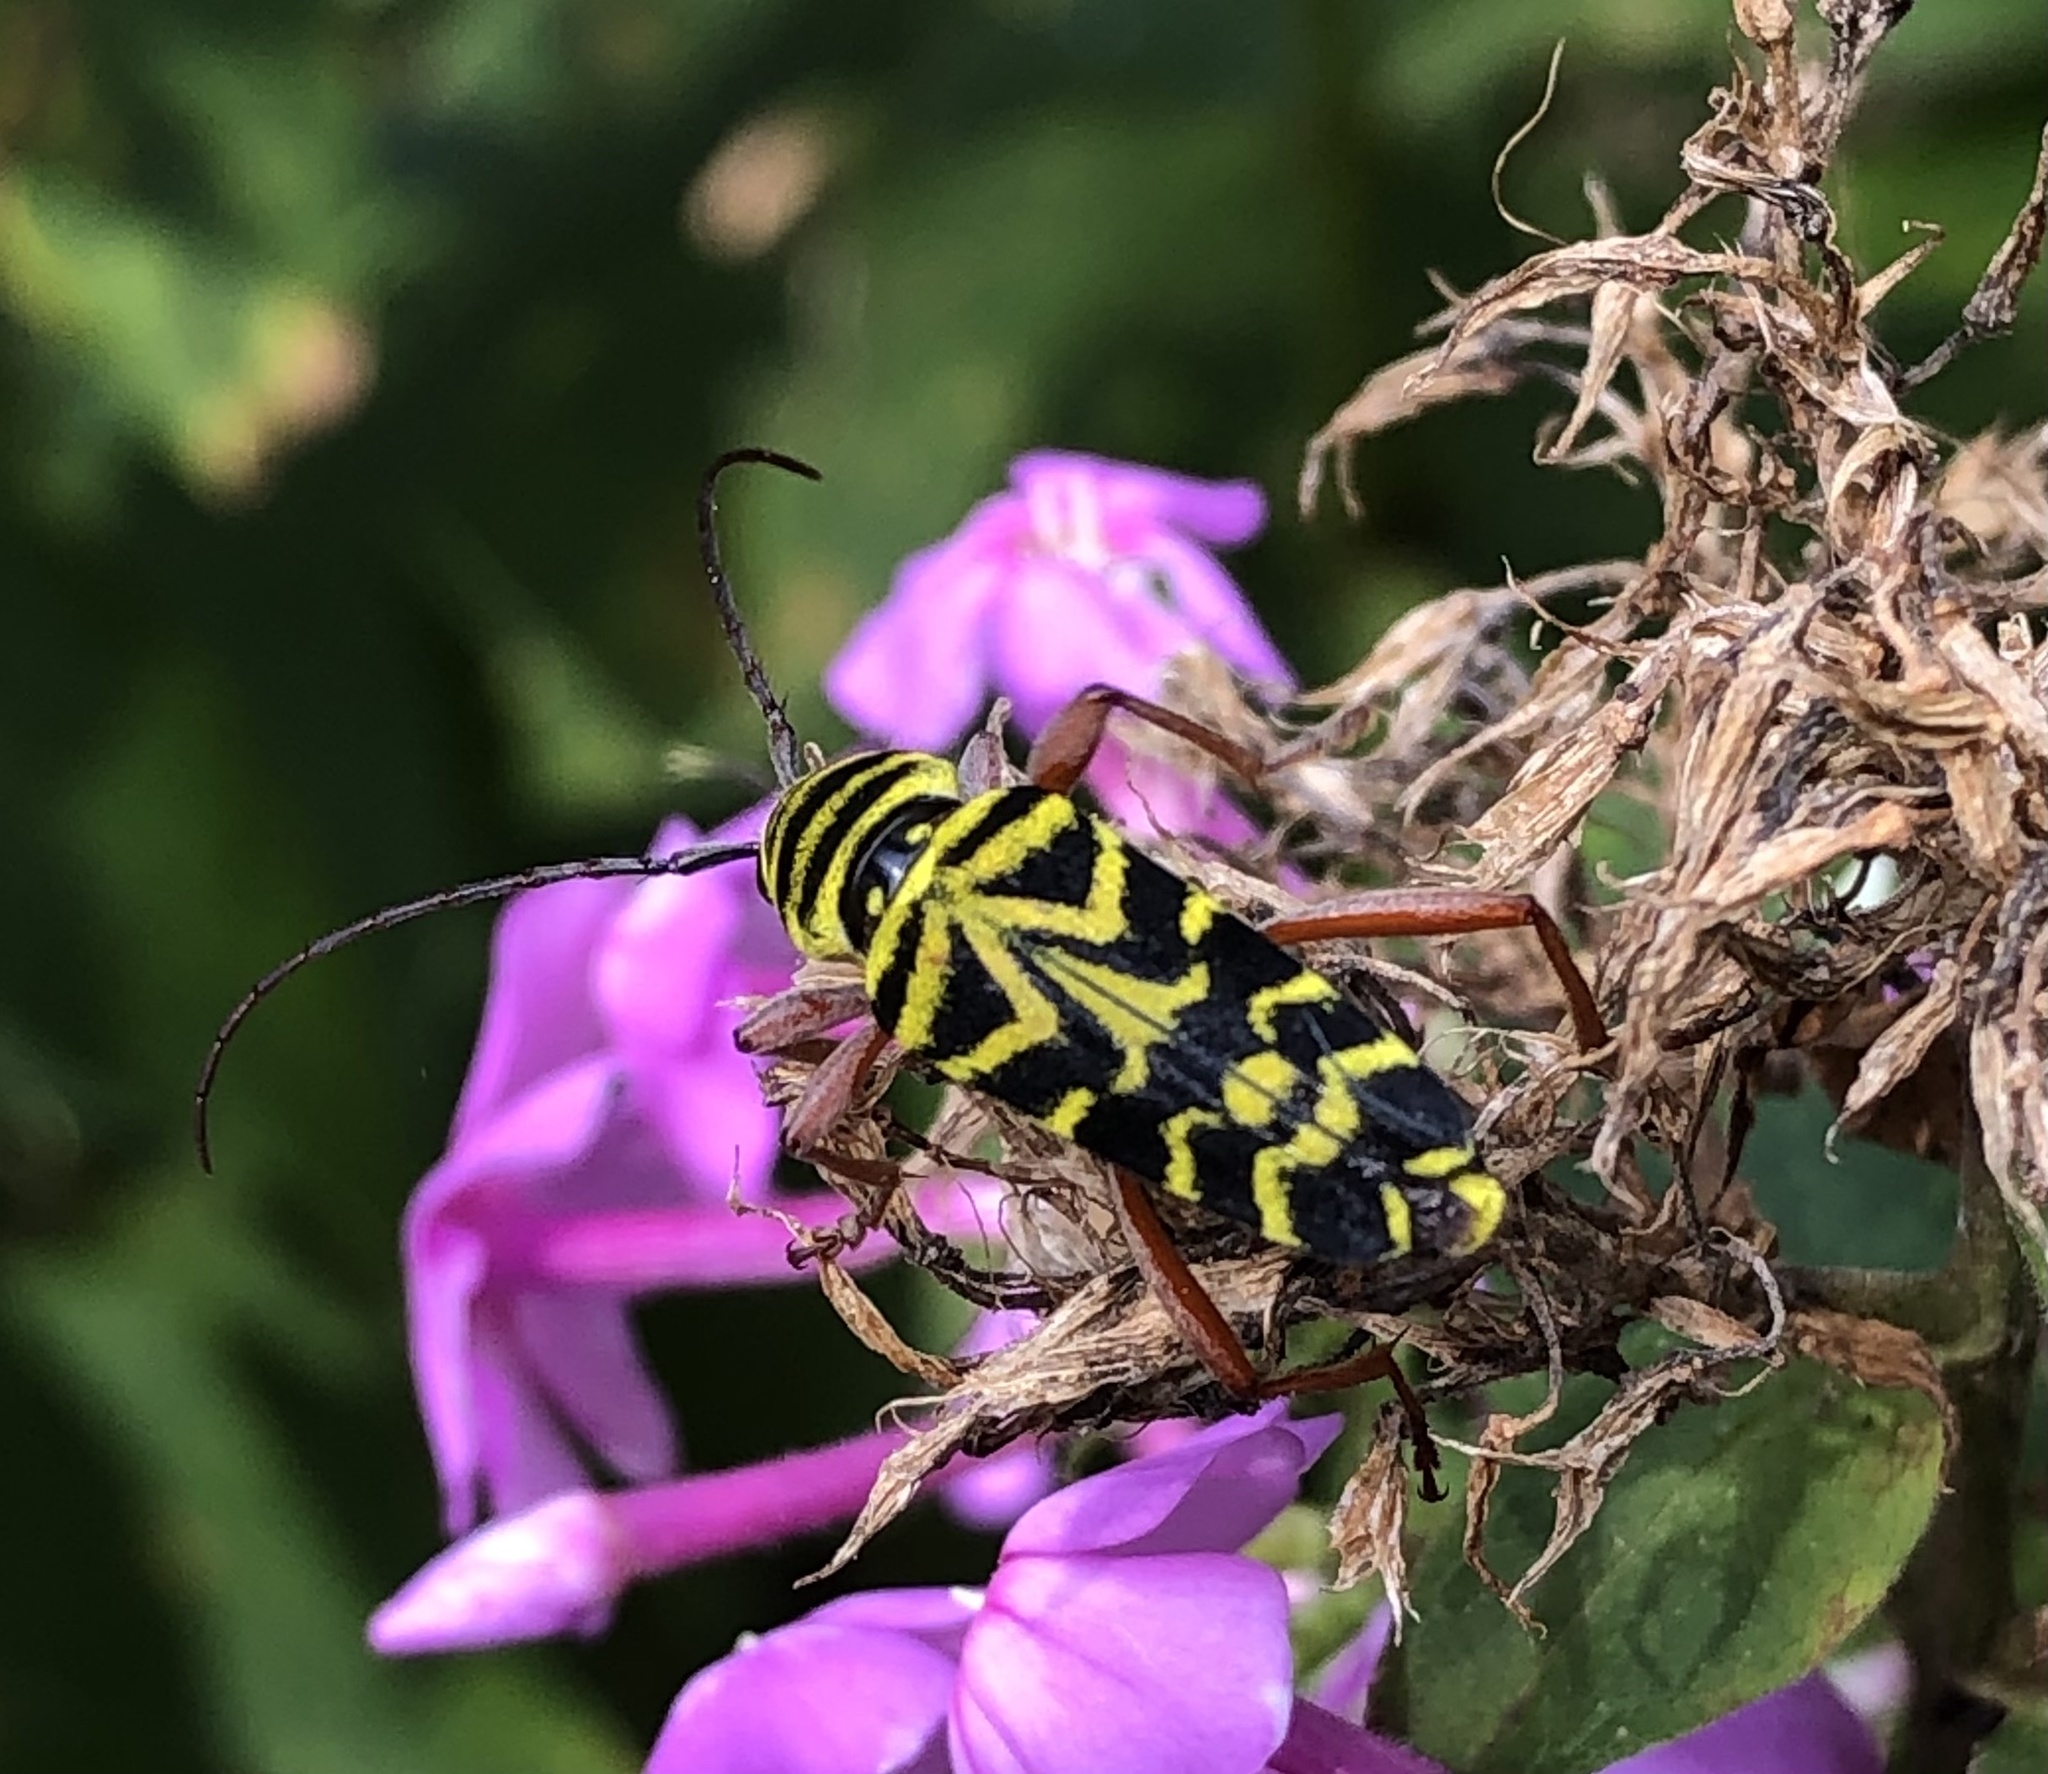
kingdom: Animalia
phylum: Arthropoda
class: Insecta
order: Coleoptera
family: Cerambycidae
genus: Megacyllene
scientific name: Megacyllene robiniae
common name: Locust borer
